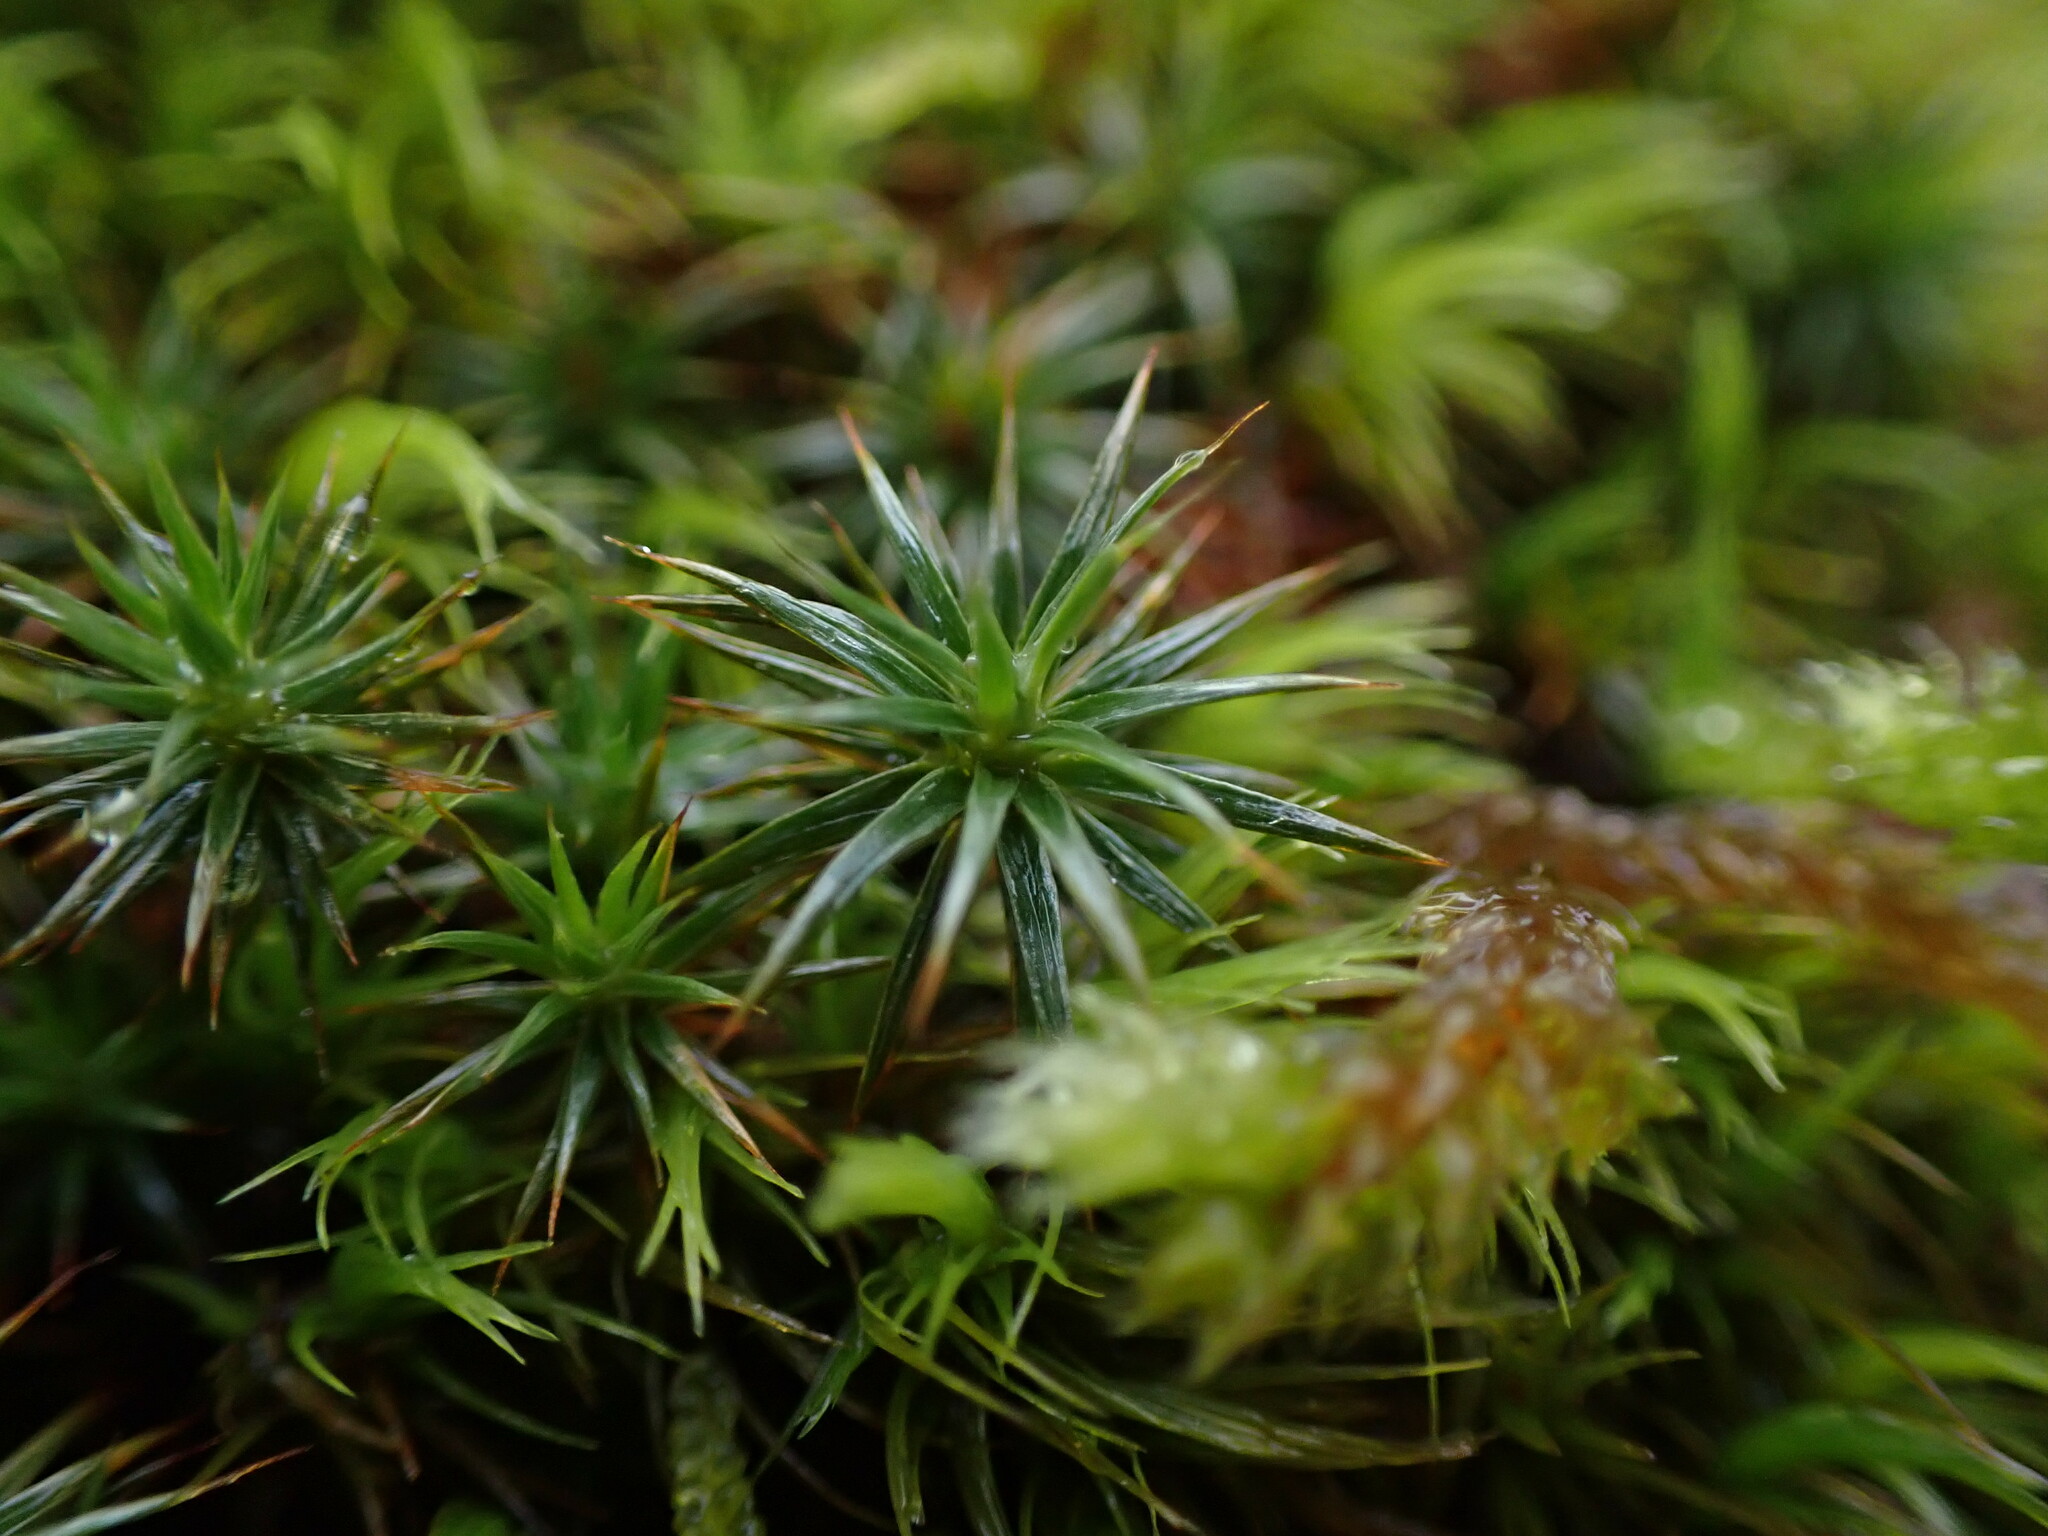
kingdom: Plantae
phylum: Bryophyta
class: Polytrichopsida
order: Polytrichales
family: Polytrichaceae
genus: Polytrichum
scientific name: Polytrichum juniperinum
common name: Juniper haircap moss
